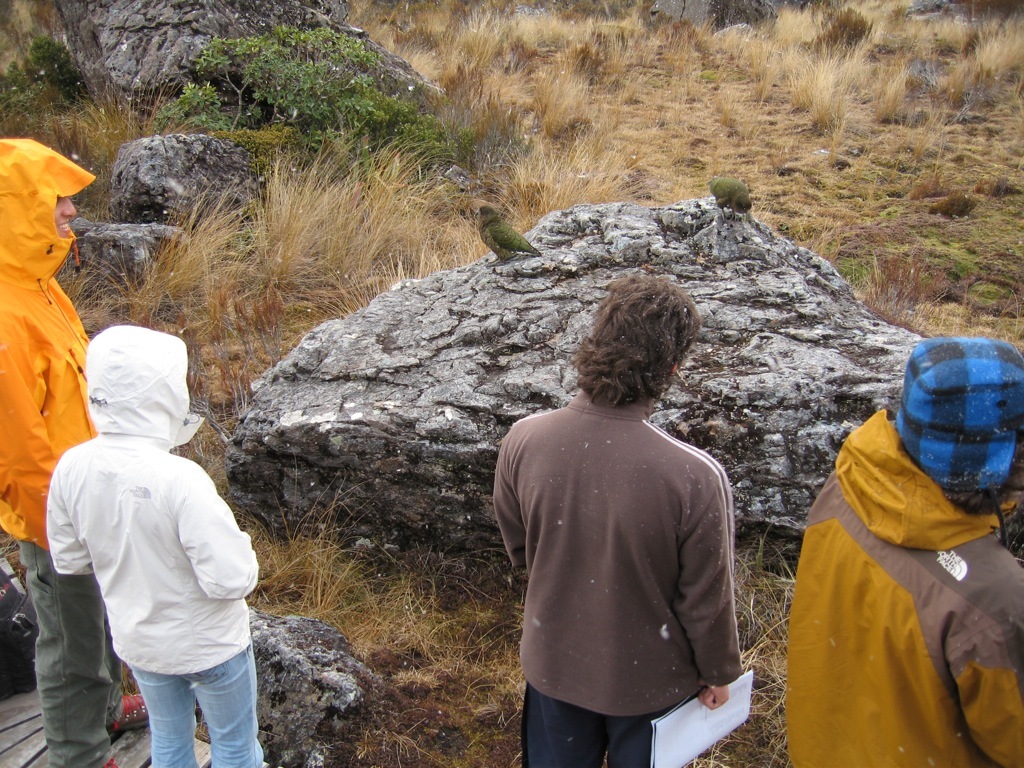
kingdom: Animalia
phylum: Chordata
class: Aves
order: Psittaciformes
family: Psittacidae
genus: Nestor
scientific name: Nestor notabilis
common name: Kea
